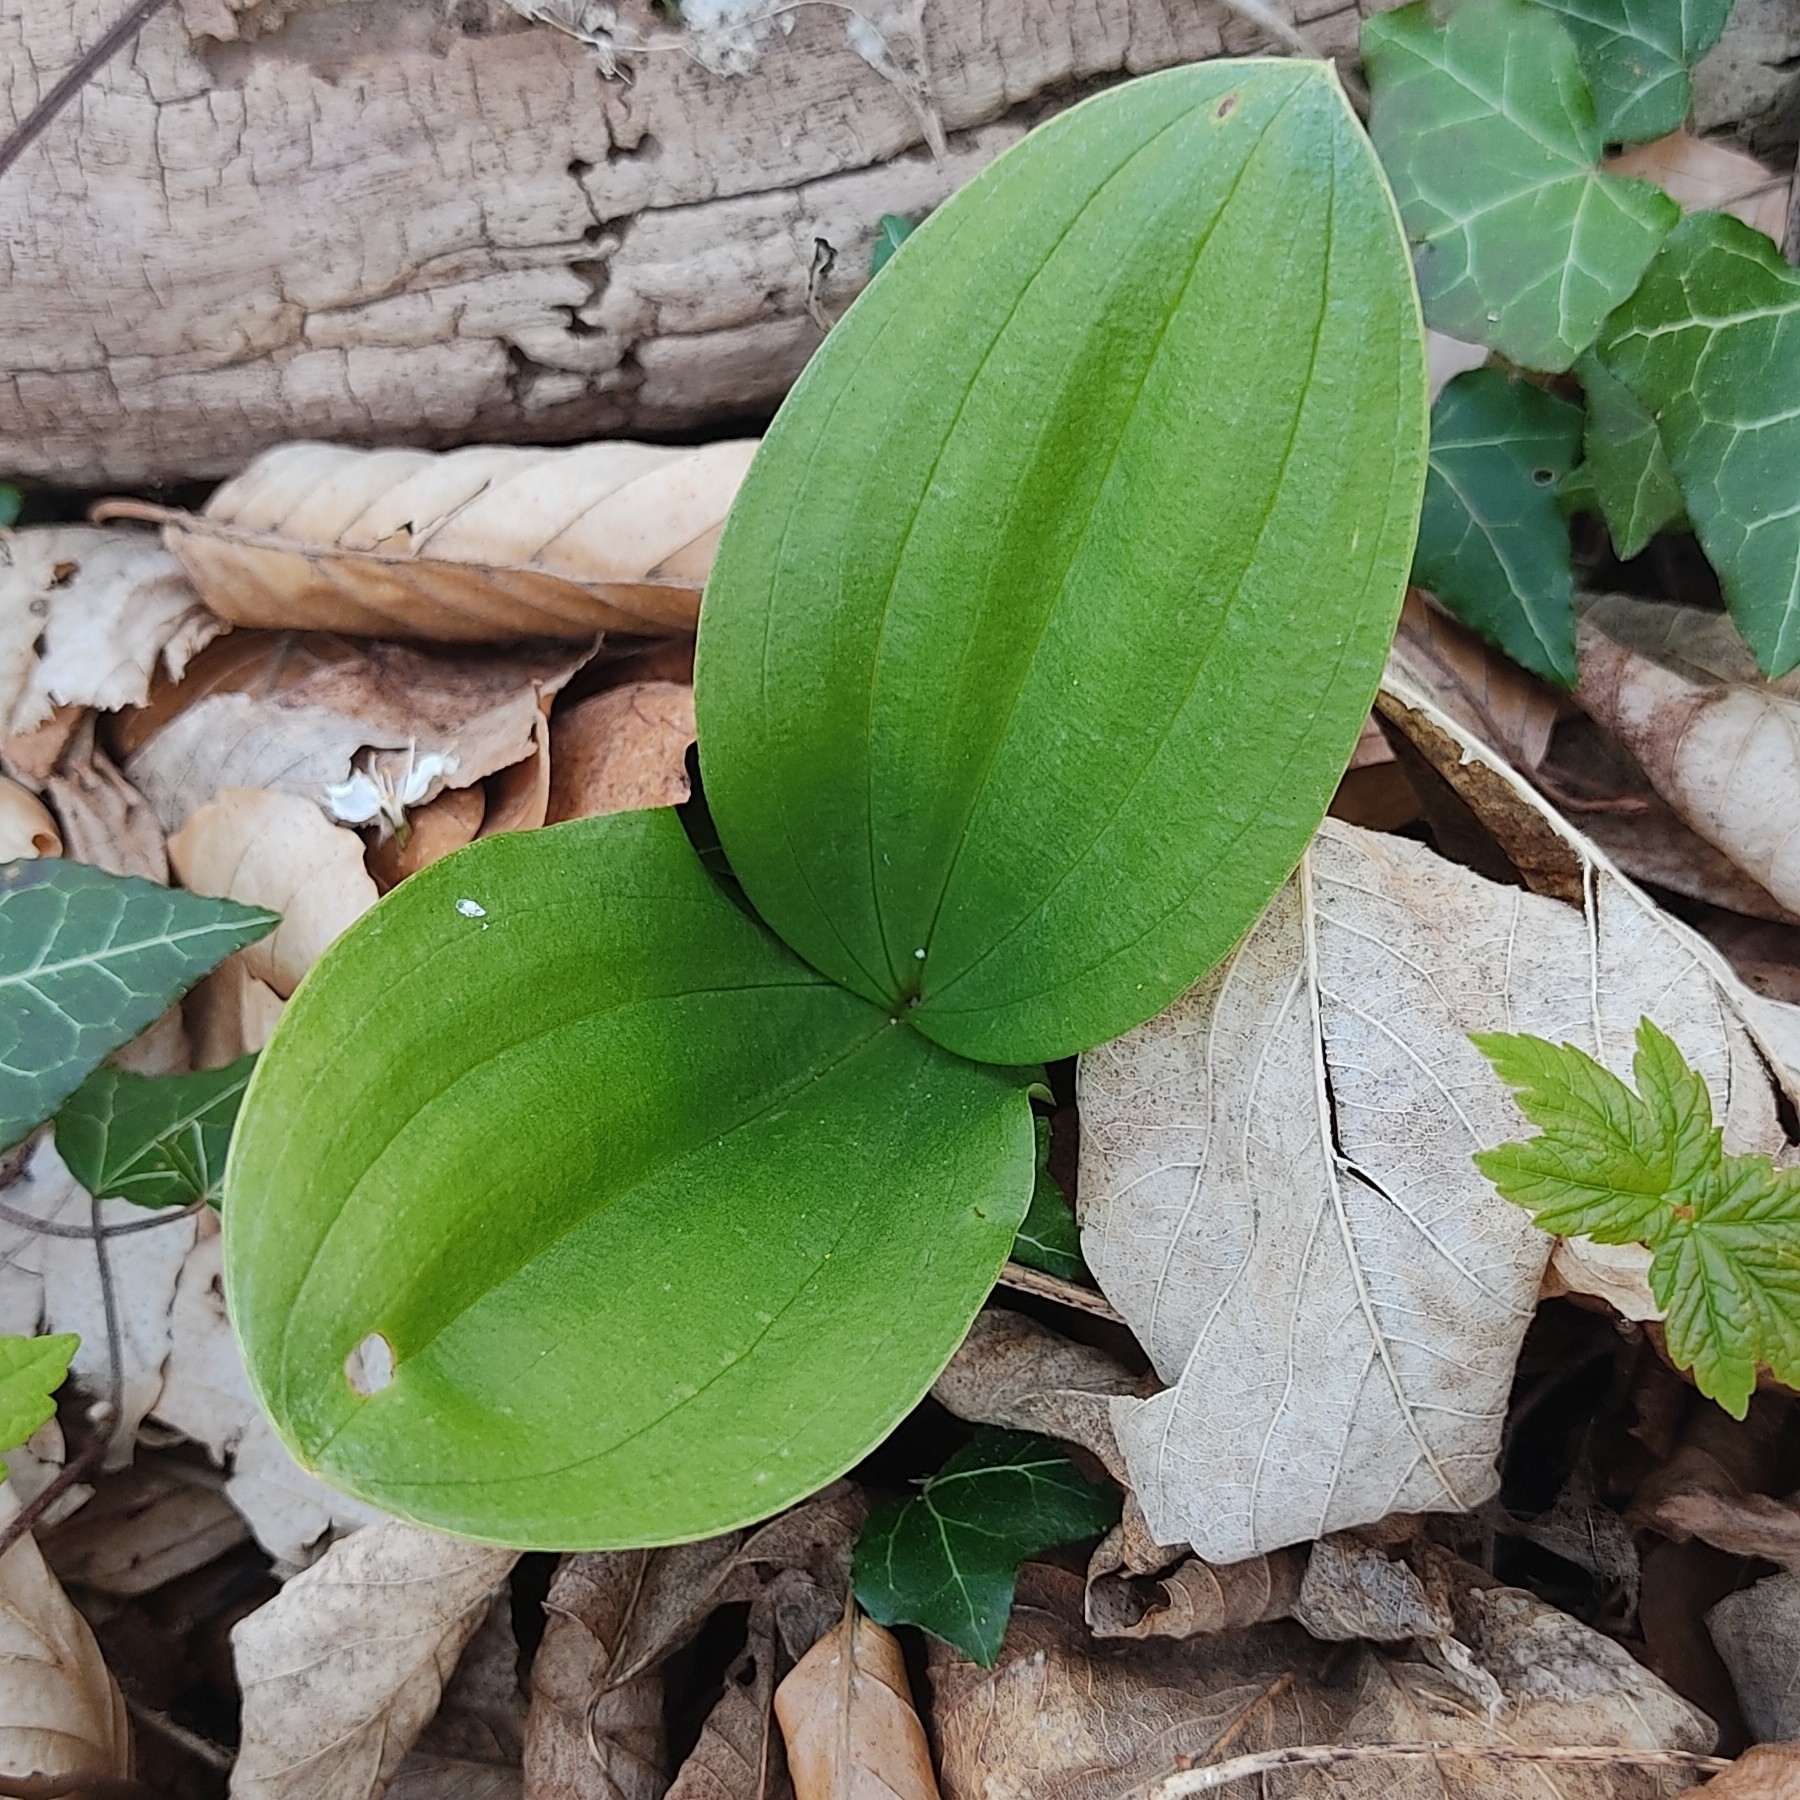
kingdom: Plantae
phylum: Tracheophyta
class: Liliopsida
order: Asparagales
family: Orchidaceae
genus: Neottia
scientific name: Neottia ovata
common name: Common twayblade
